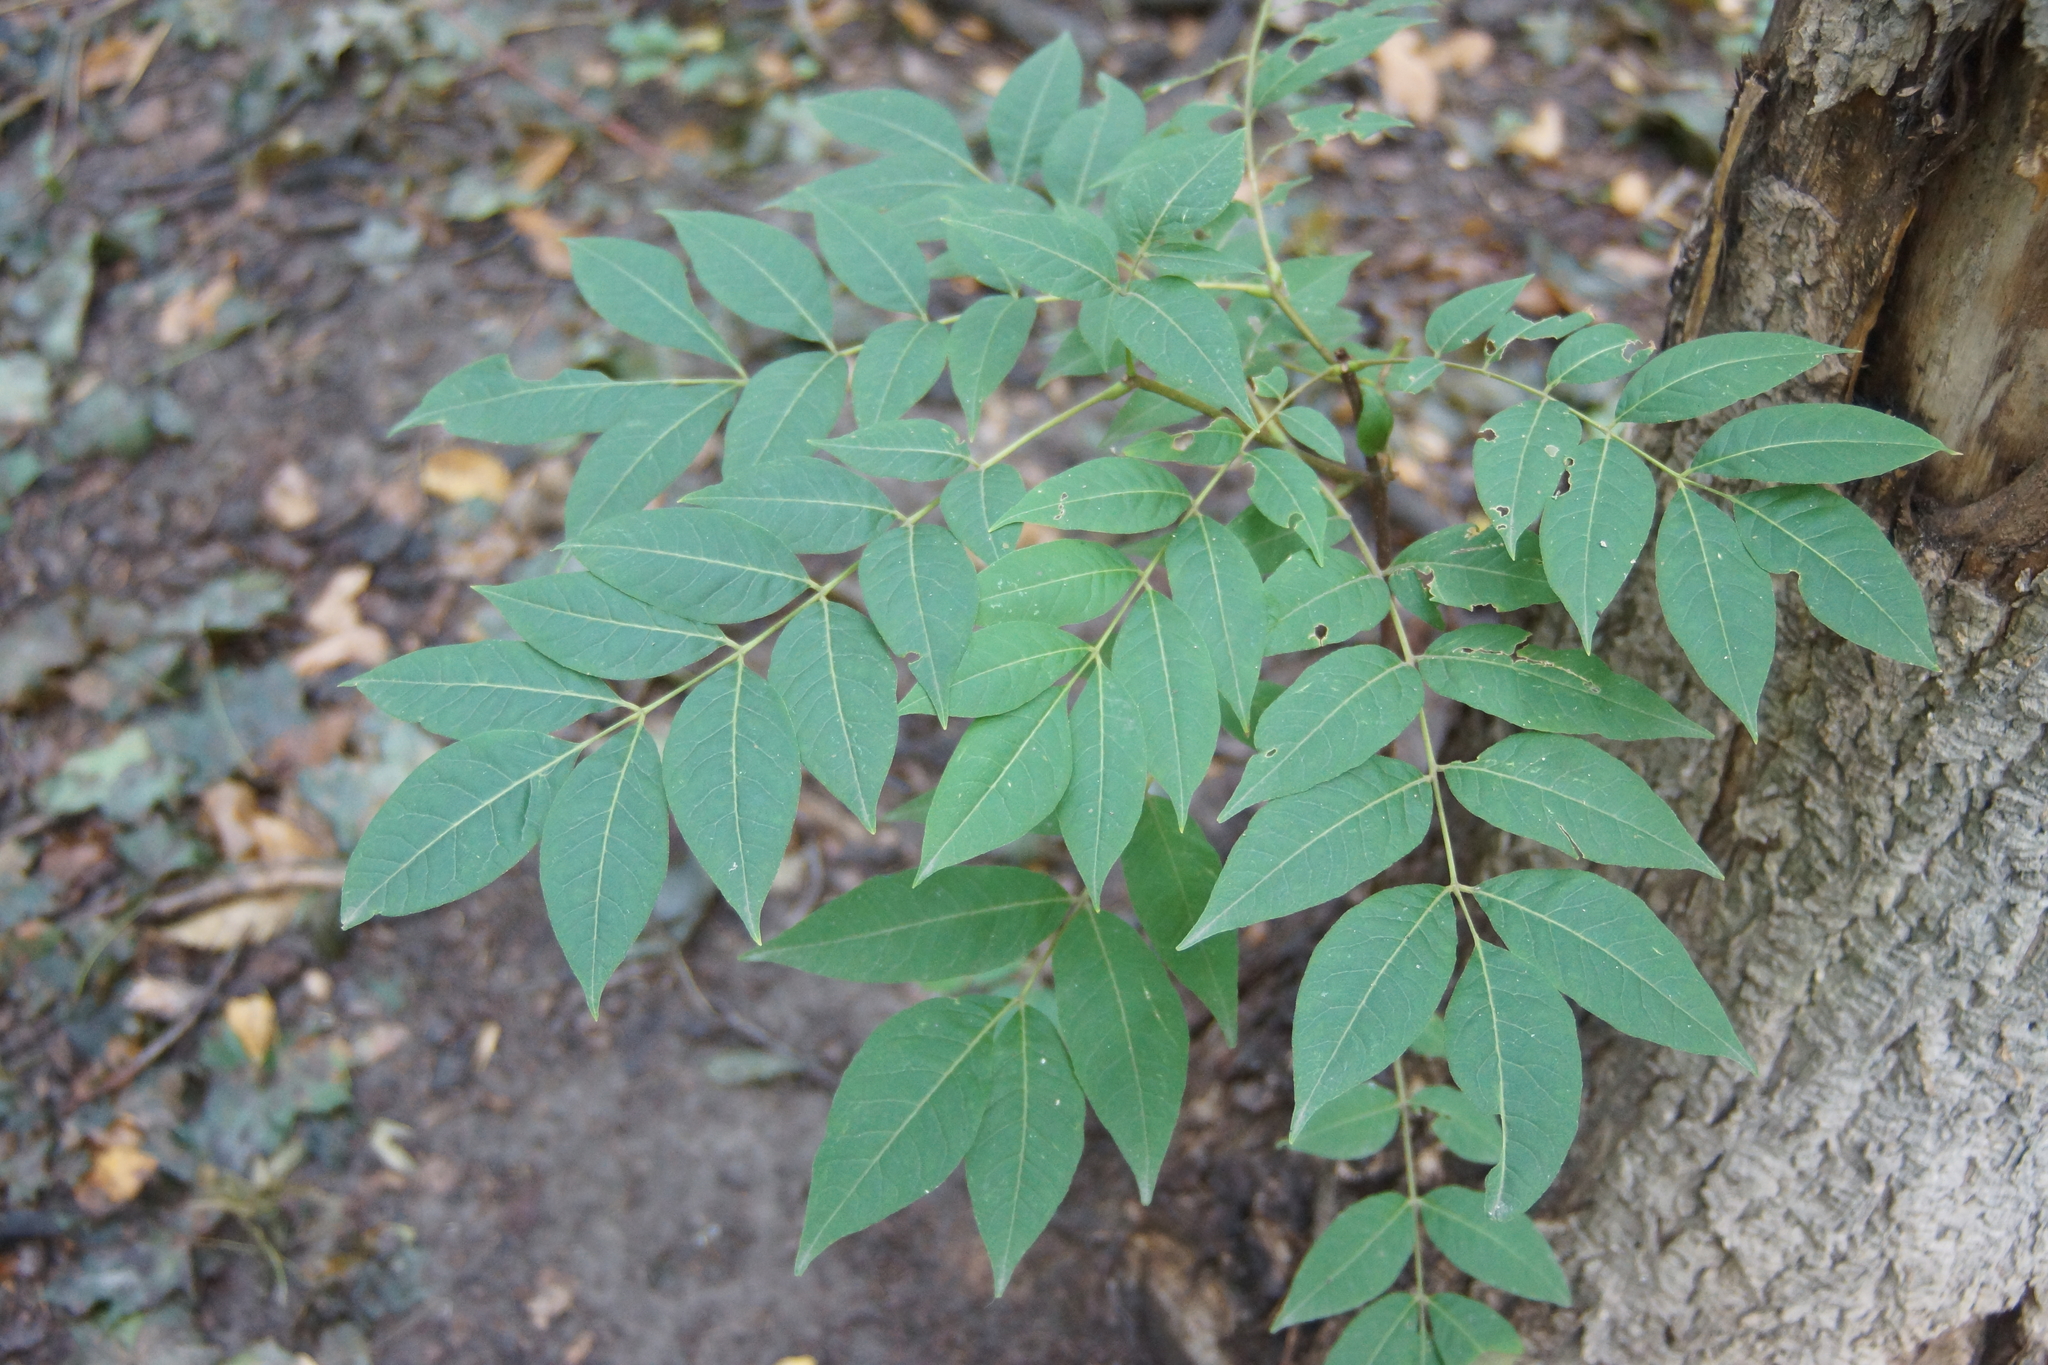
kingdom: Plantae
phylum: Tracheophyta
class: Magnoliopsida
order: Sapindales
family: Rutaceae
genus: Phellodendron
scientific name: Phellodendron amurense
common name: Amur corktree
